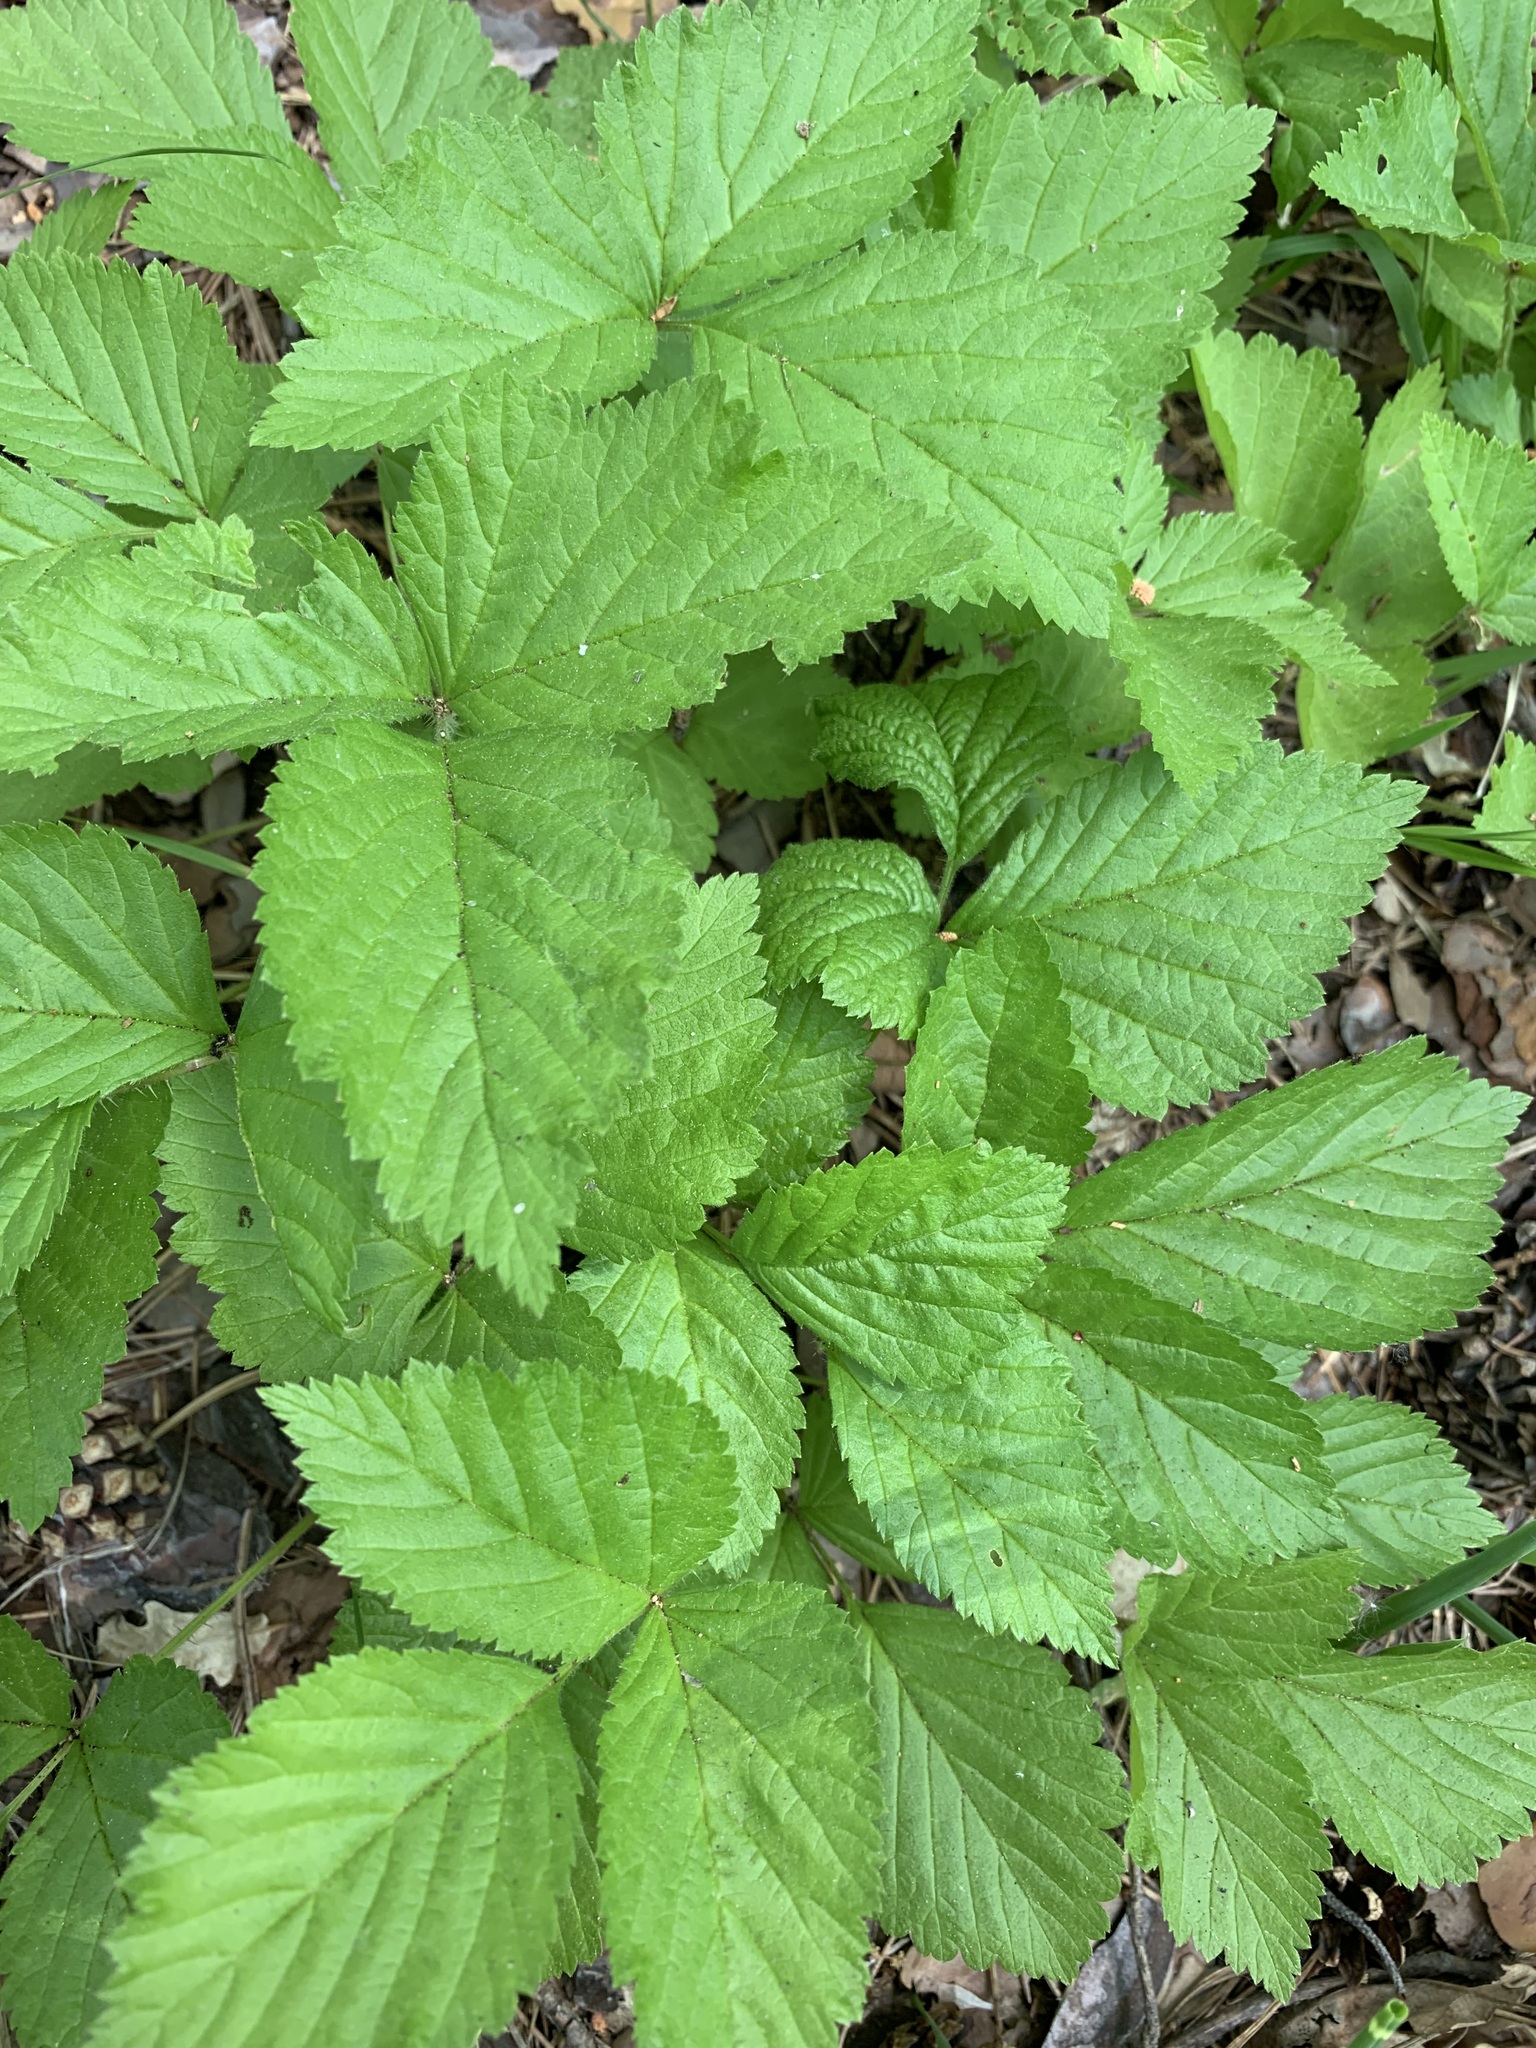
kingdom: Plantae
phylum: Tracheophyta
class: Magnoliopsida
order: Rosales
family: Rosaceae
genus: Rubus
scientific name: Rubus saxatilis
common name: Stone bramble
